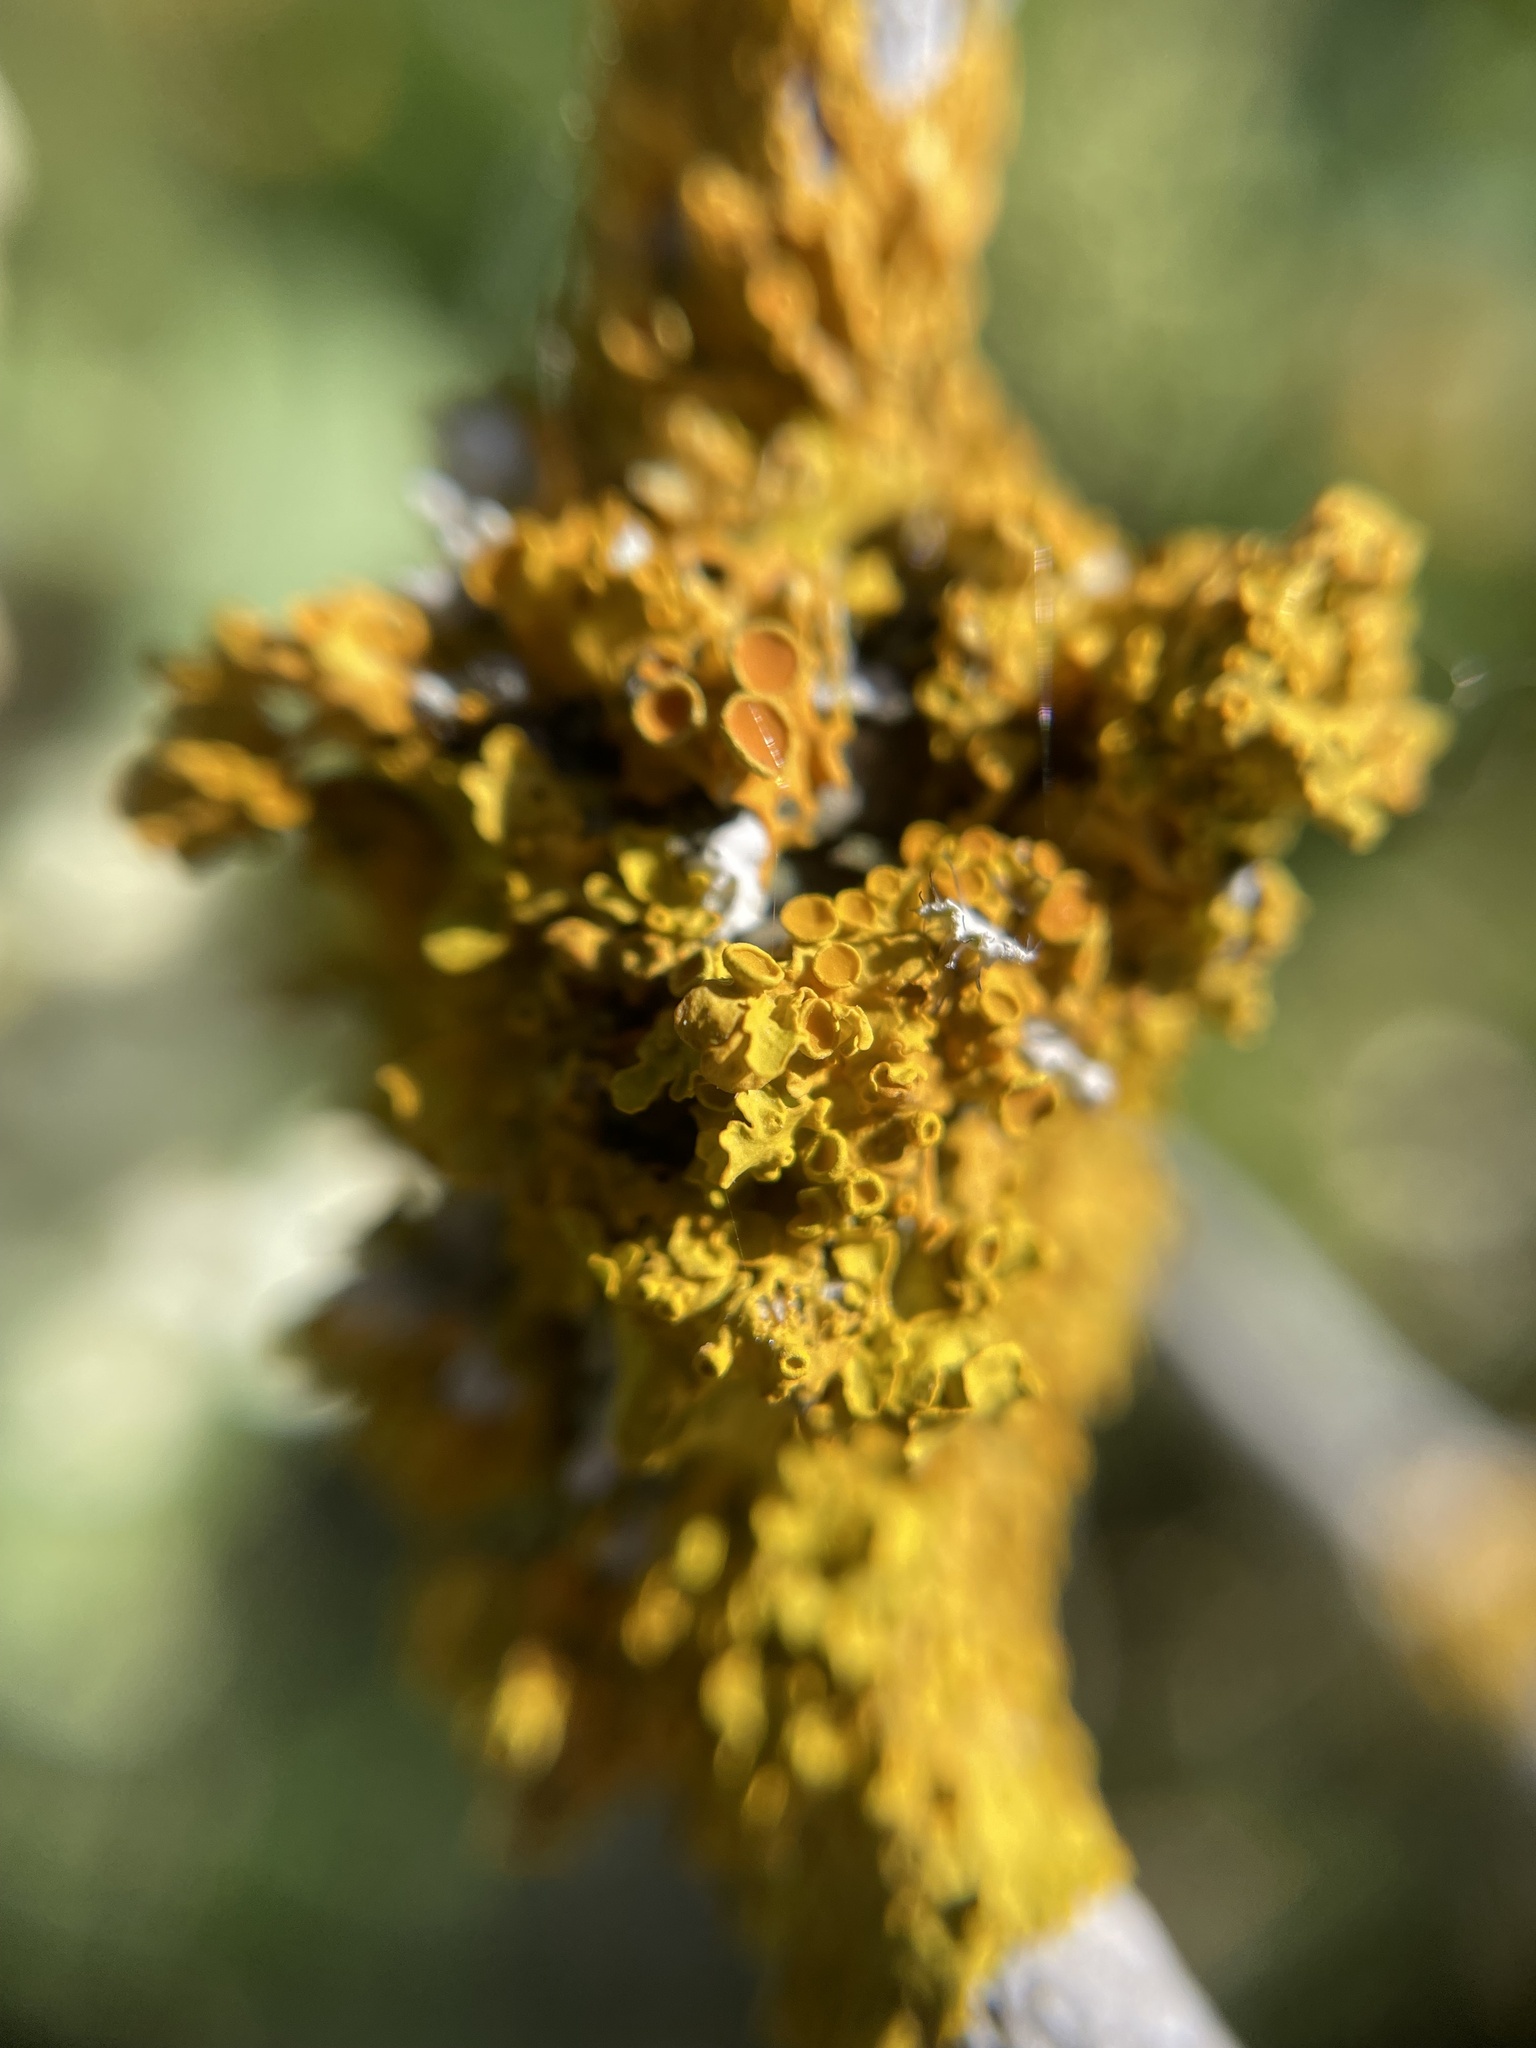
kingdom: Fungi
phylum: Ascomycota
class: Lecanoromycetes
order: Teloschistales
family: Teloschistaceae
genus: Xanthoria
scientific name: Xanthoria parietina
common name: Common orange lichen
